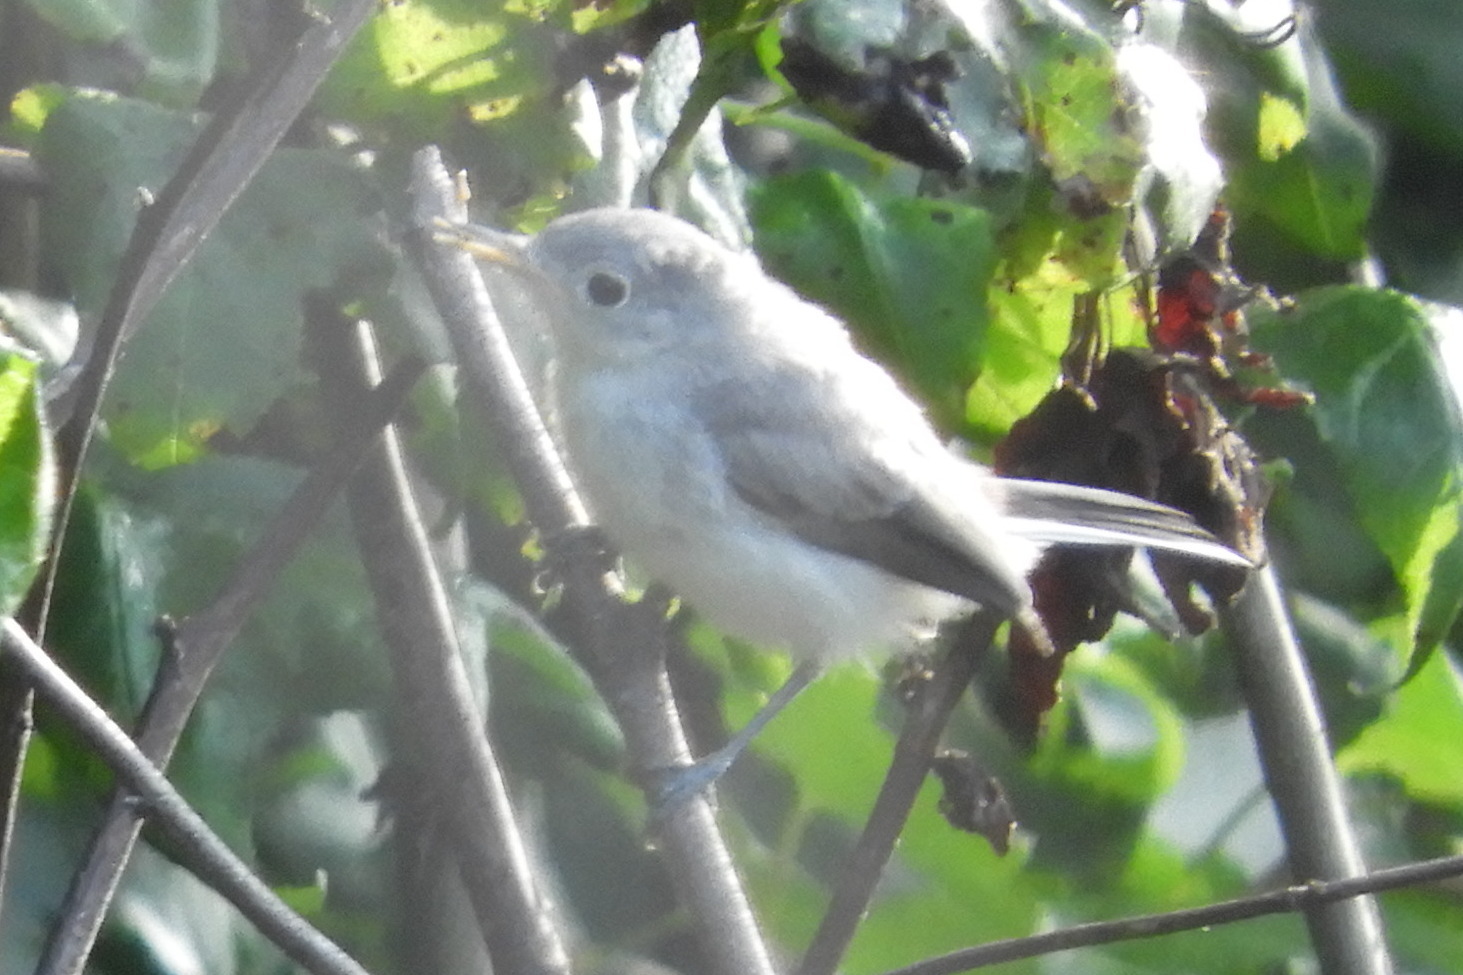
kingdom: Animalia
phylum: Chordata
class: Aves
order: Passeriformes
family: Polioptilidae
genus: Polioptila
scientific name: Polioptila caerulea
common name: Blue-gray gnatcatcher
